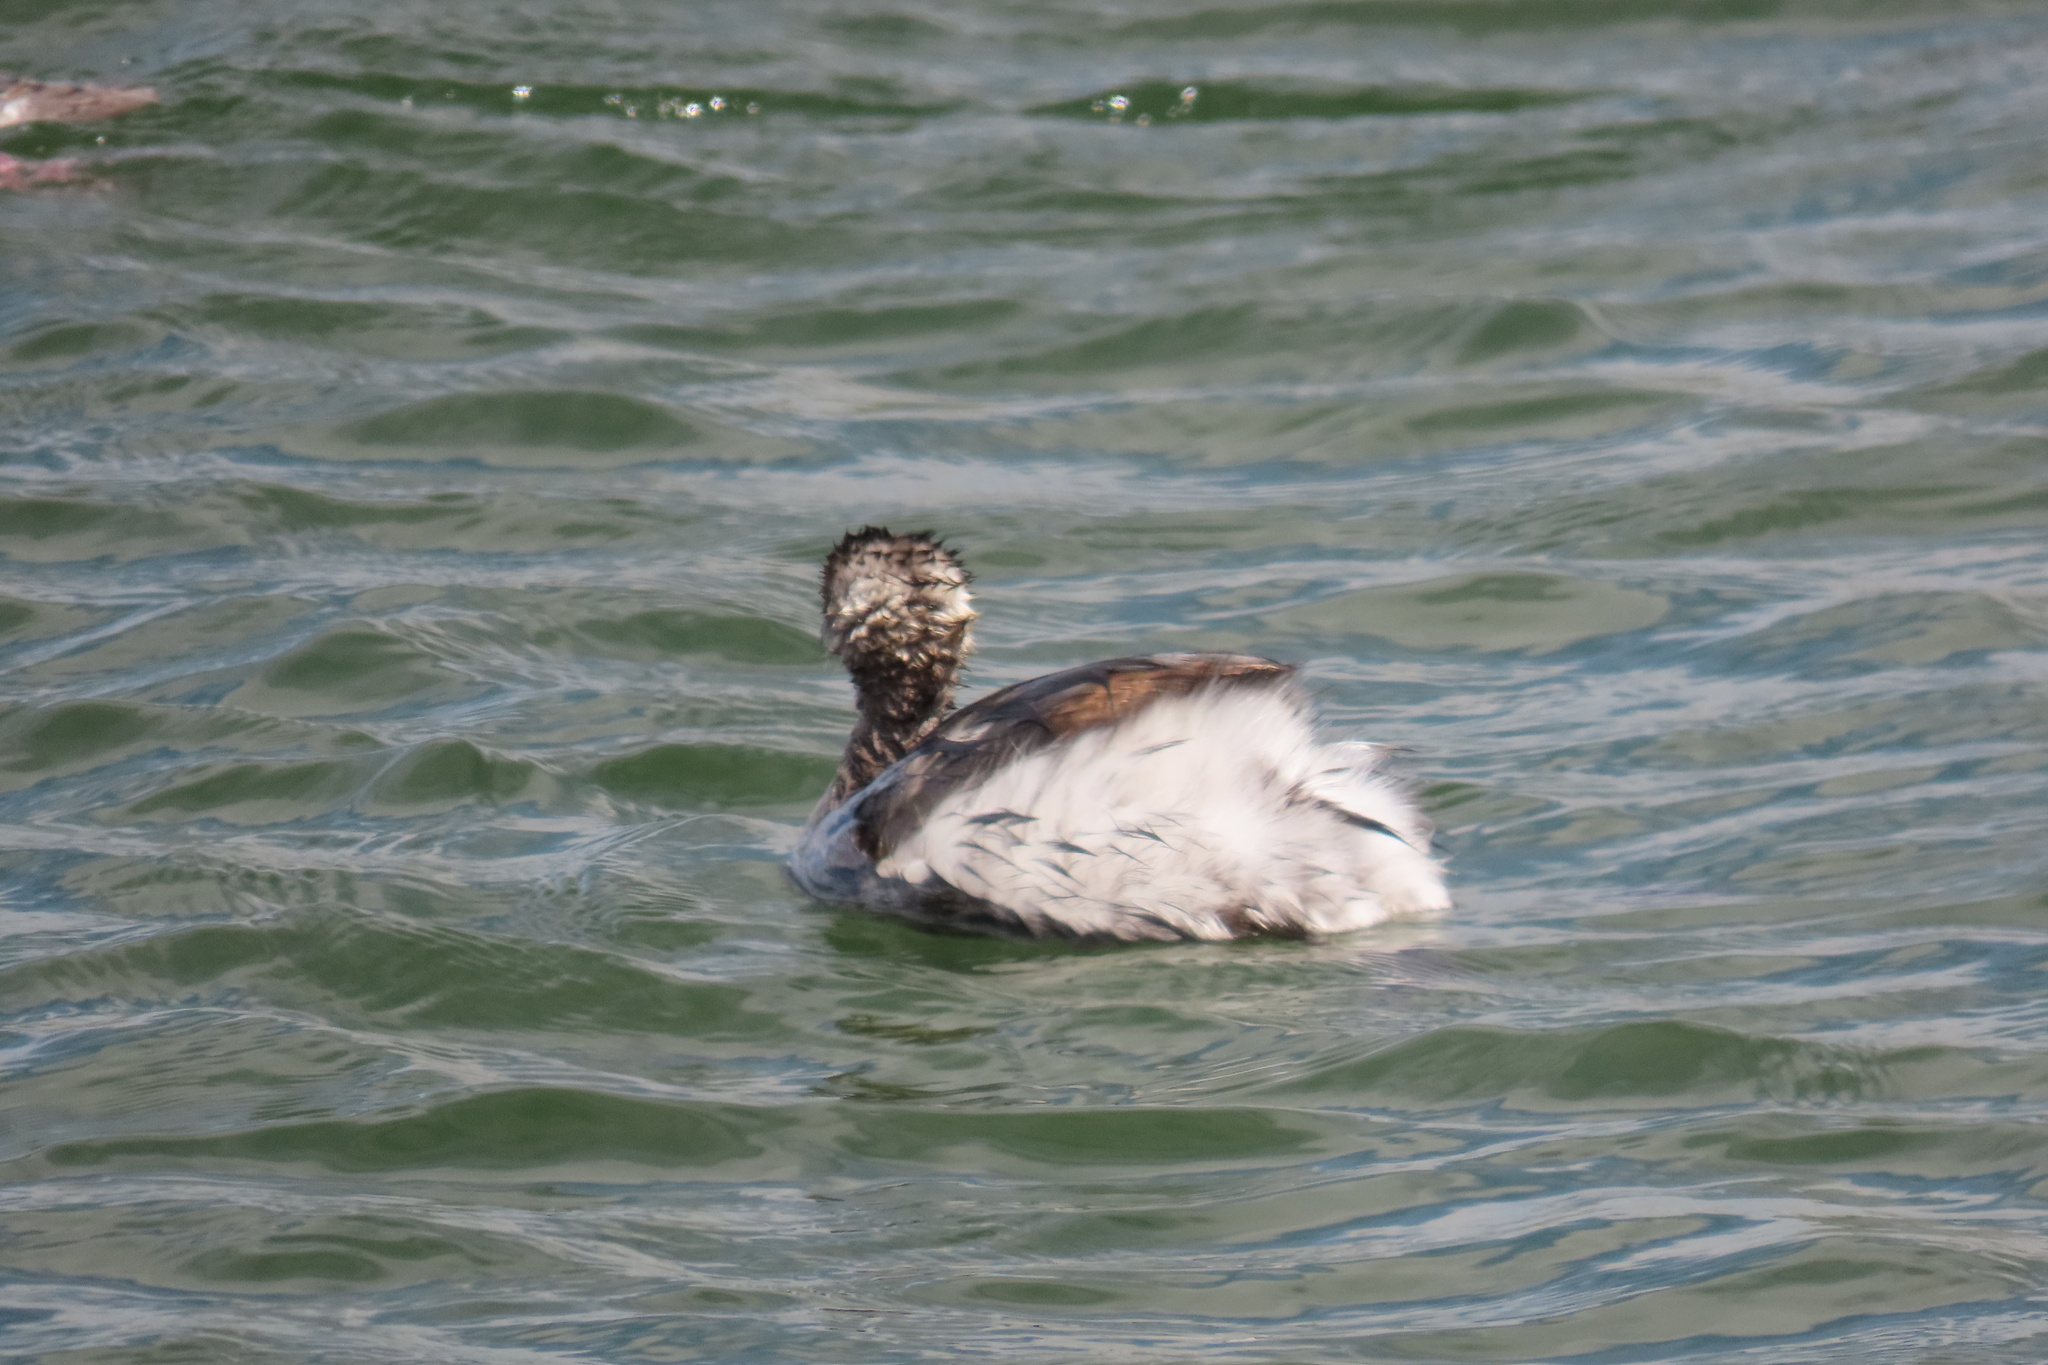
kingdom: Animalia
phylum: Chordata
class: Aves
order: Podicipediformes
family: Podicipedidae
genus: Podiceps
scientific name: Podiceps nigricollis
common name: Black-necked grebe
